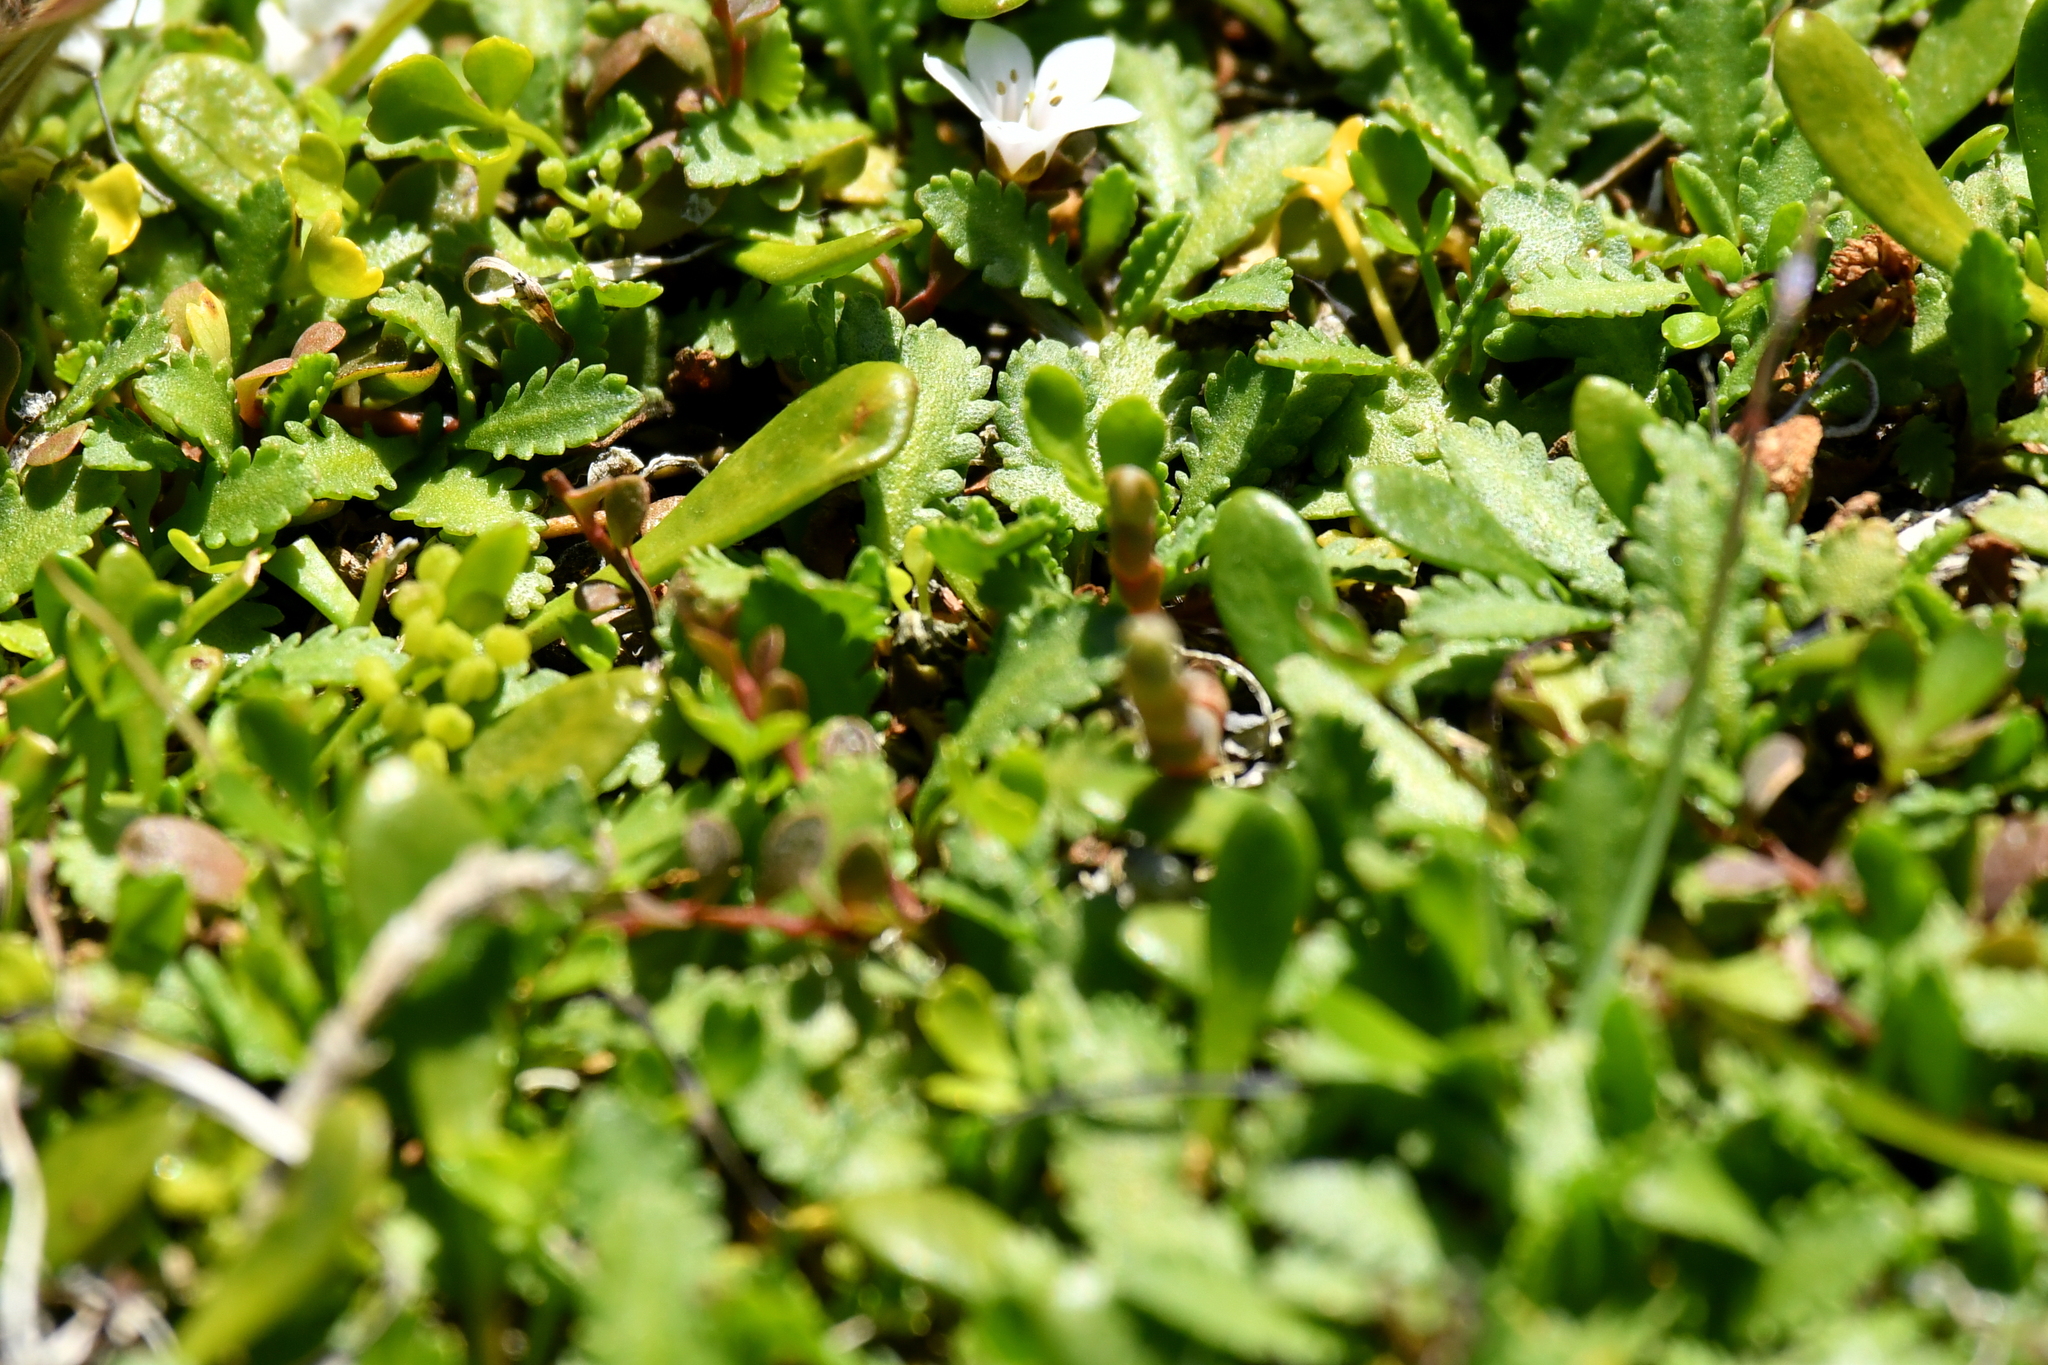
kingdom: Plantae
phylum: Tracheophyta
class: Magnoliopsida
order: Asterales
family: Asteraceae
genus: Leptinella
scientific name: Leptinella dioica
